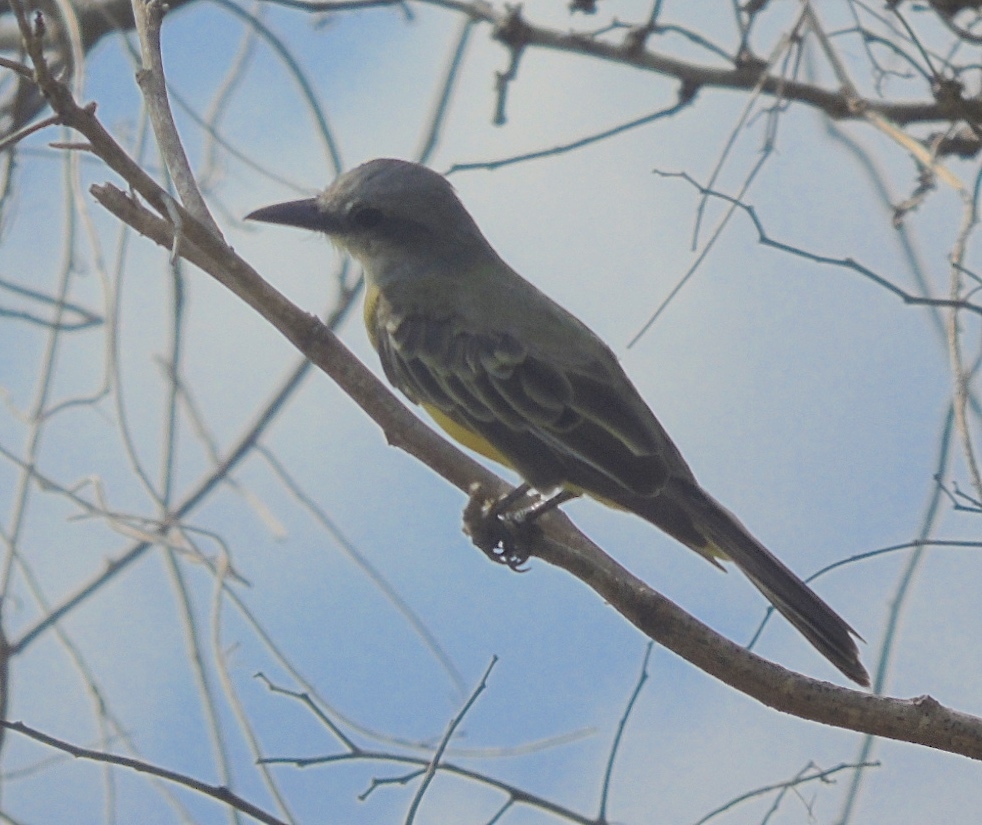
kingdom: Animalia
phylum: Chordata
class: Aves
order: Passeriformes
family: Tyrannidae
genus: Tyrannus
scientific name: Tyrannus melancholicus
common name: Tropical kingbird
